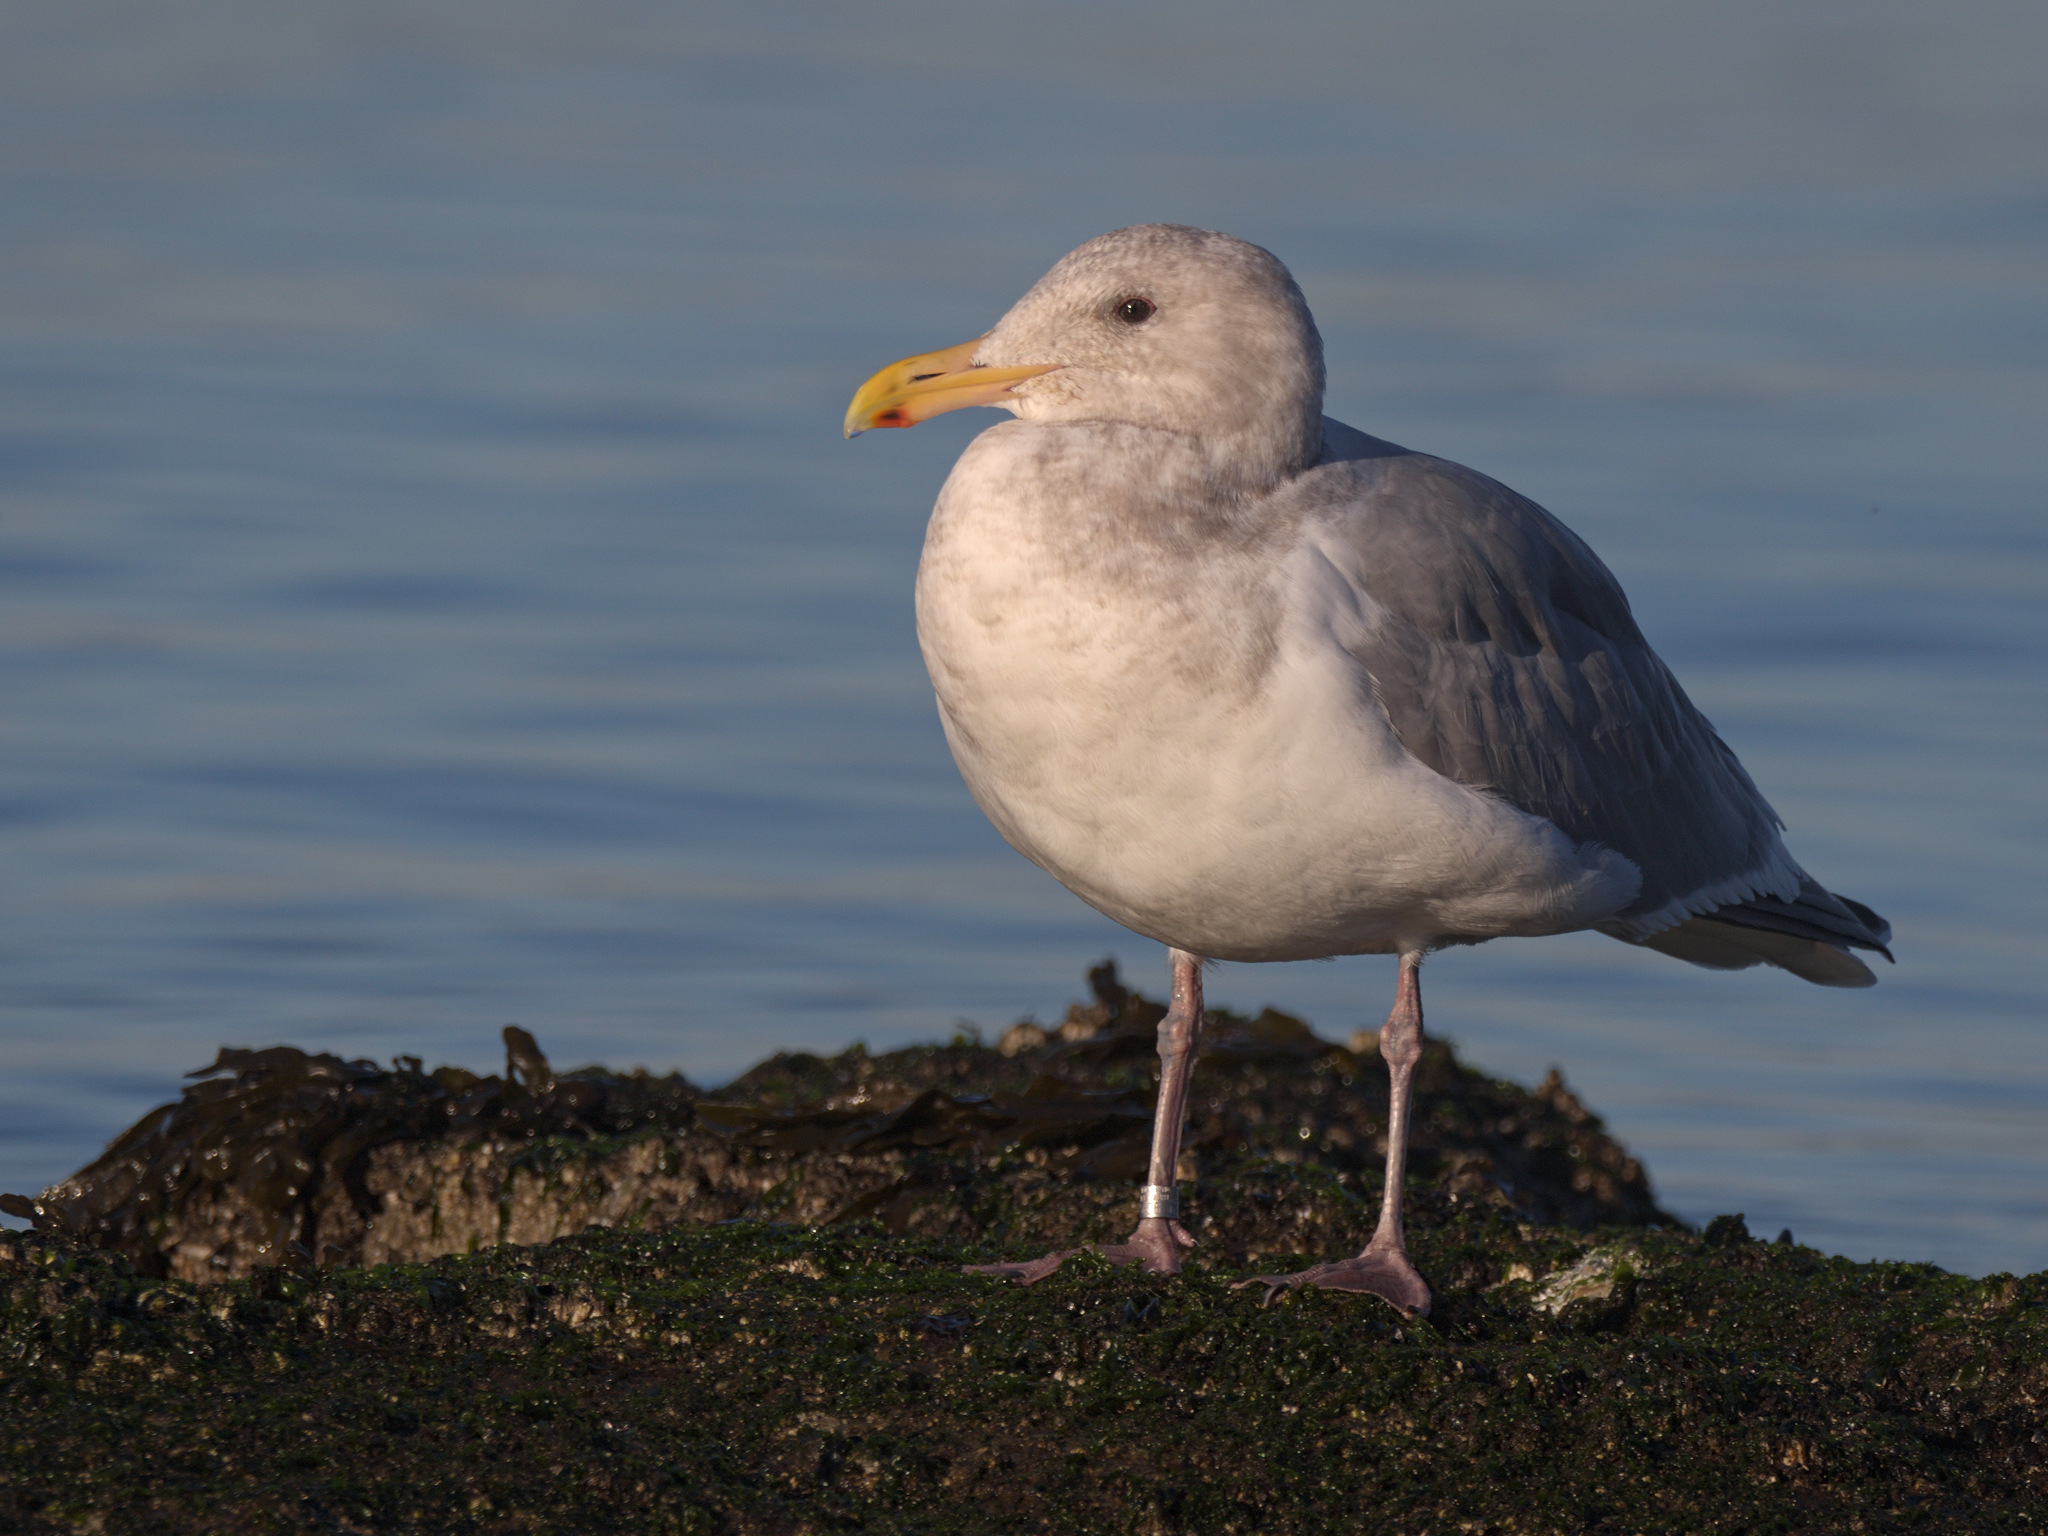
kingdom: Animalia
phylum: Chordata
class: Aves
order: Charadriiformes
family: Laridae
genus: Larus
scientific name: Larus
